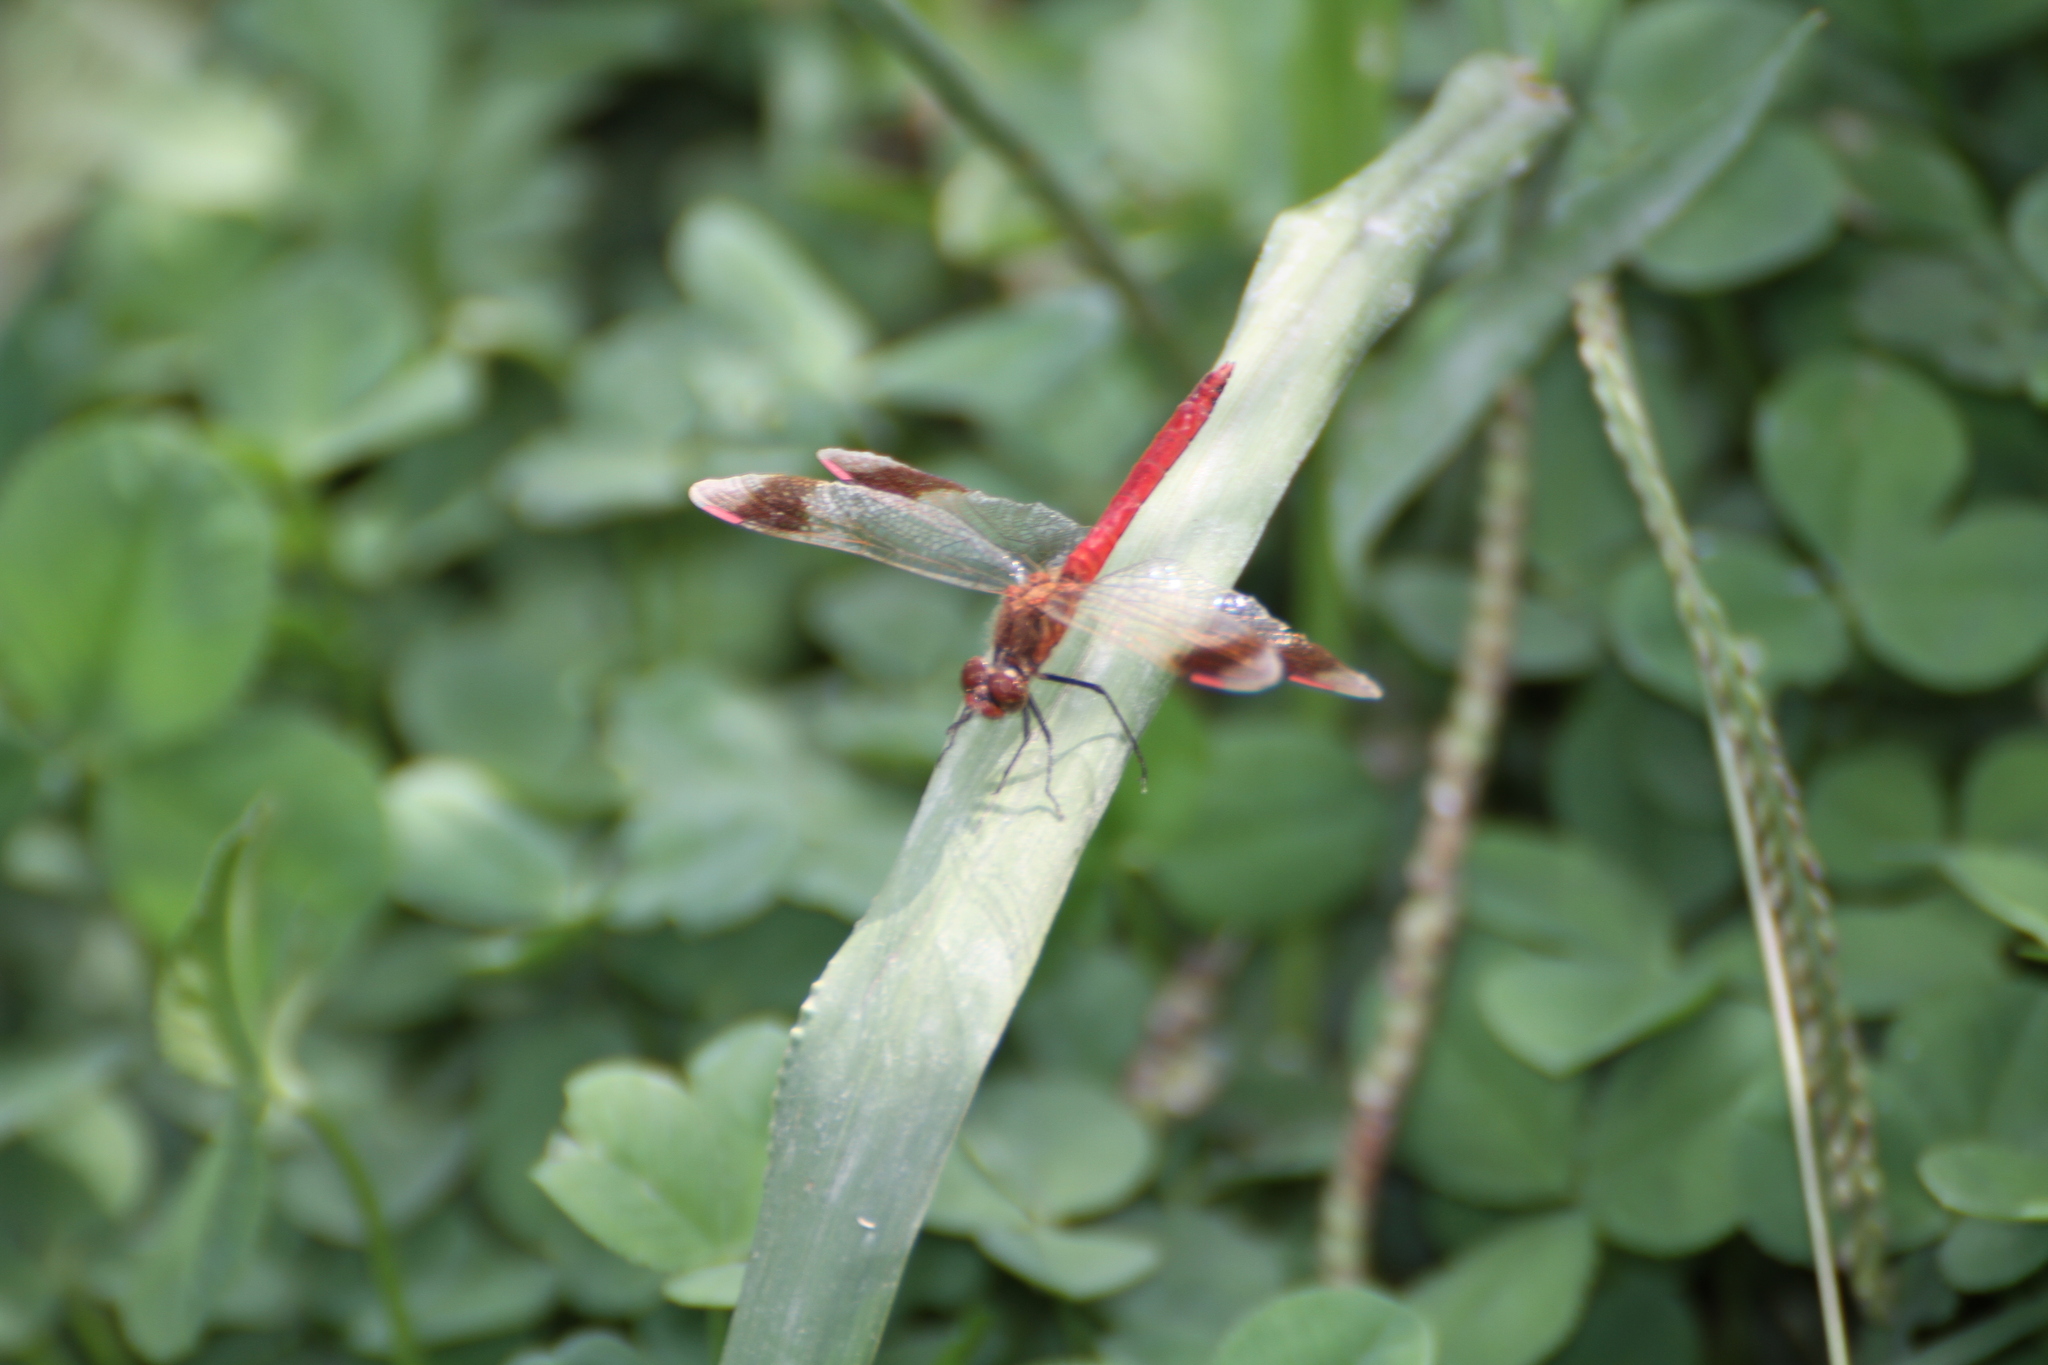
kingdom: Animalia
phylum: Arthropoda
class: Insecta
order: Odonata
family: Libellulidae
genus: Sympetrum
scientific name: Sympetrum pedemontanum
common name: Banded darter
